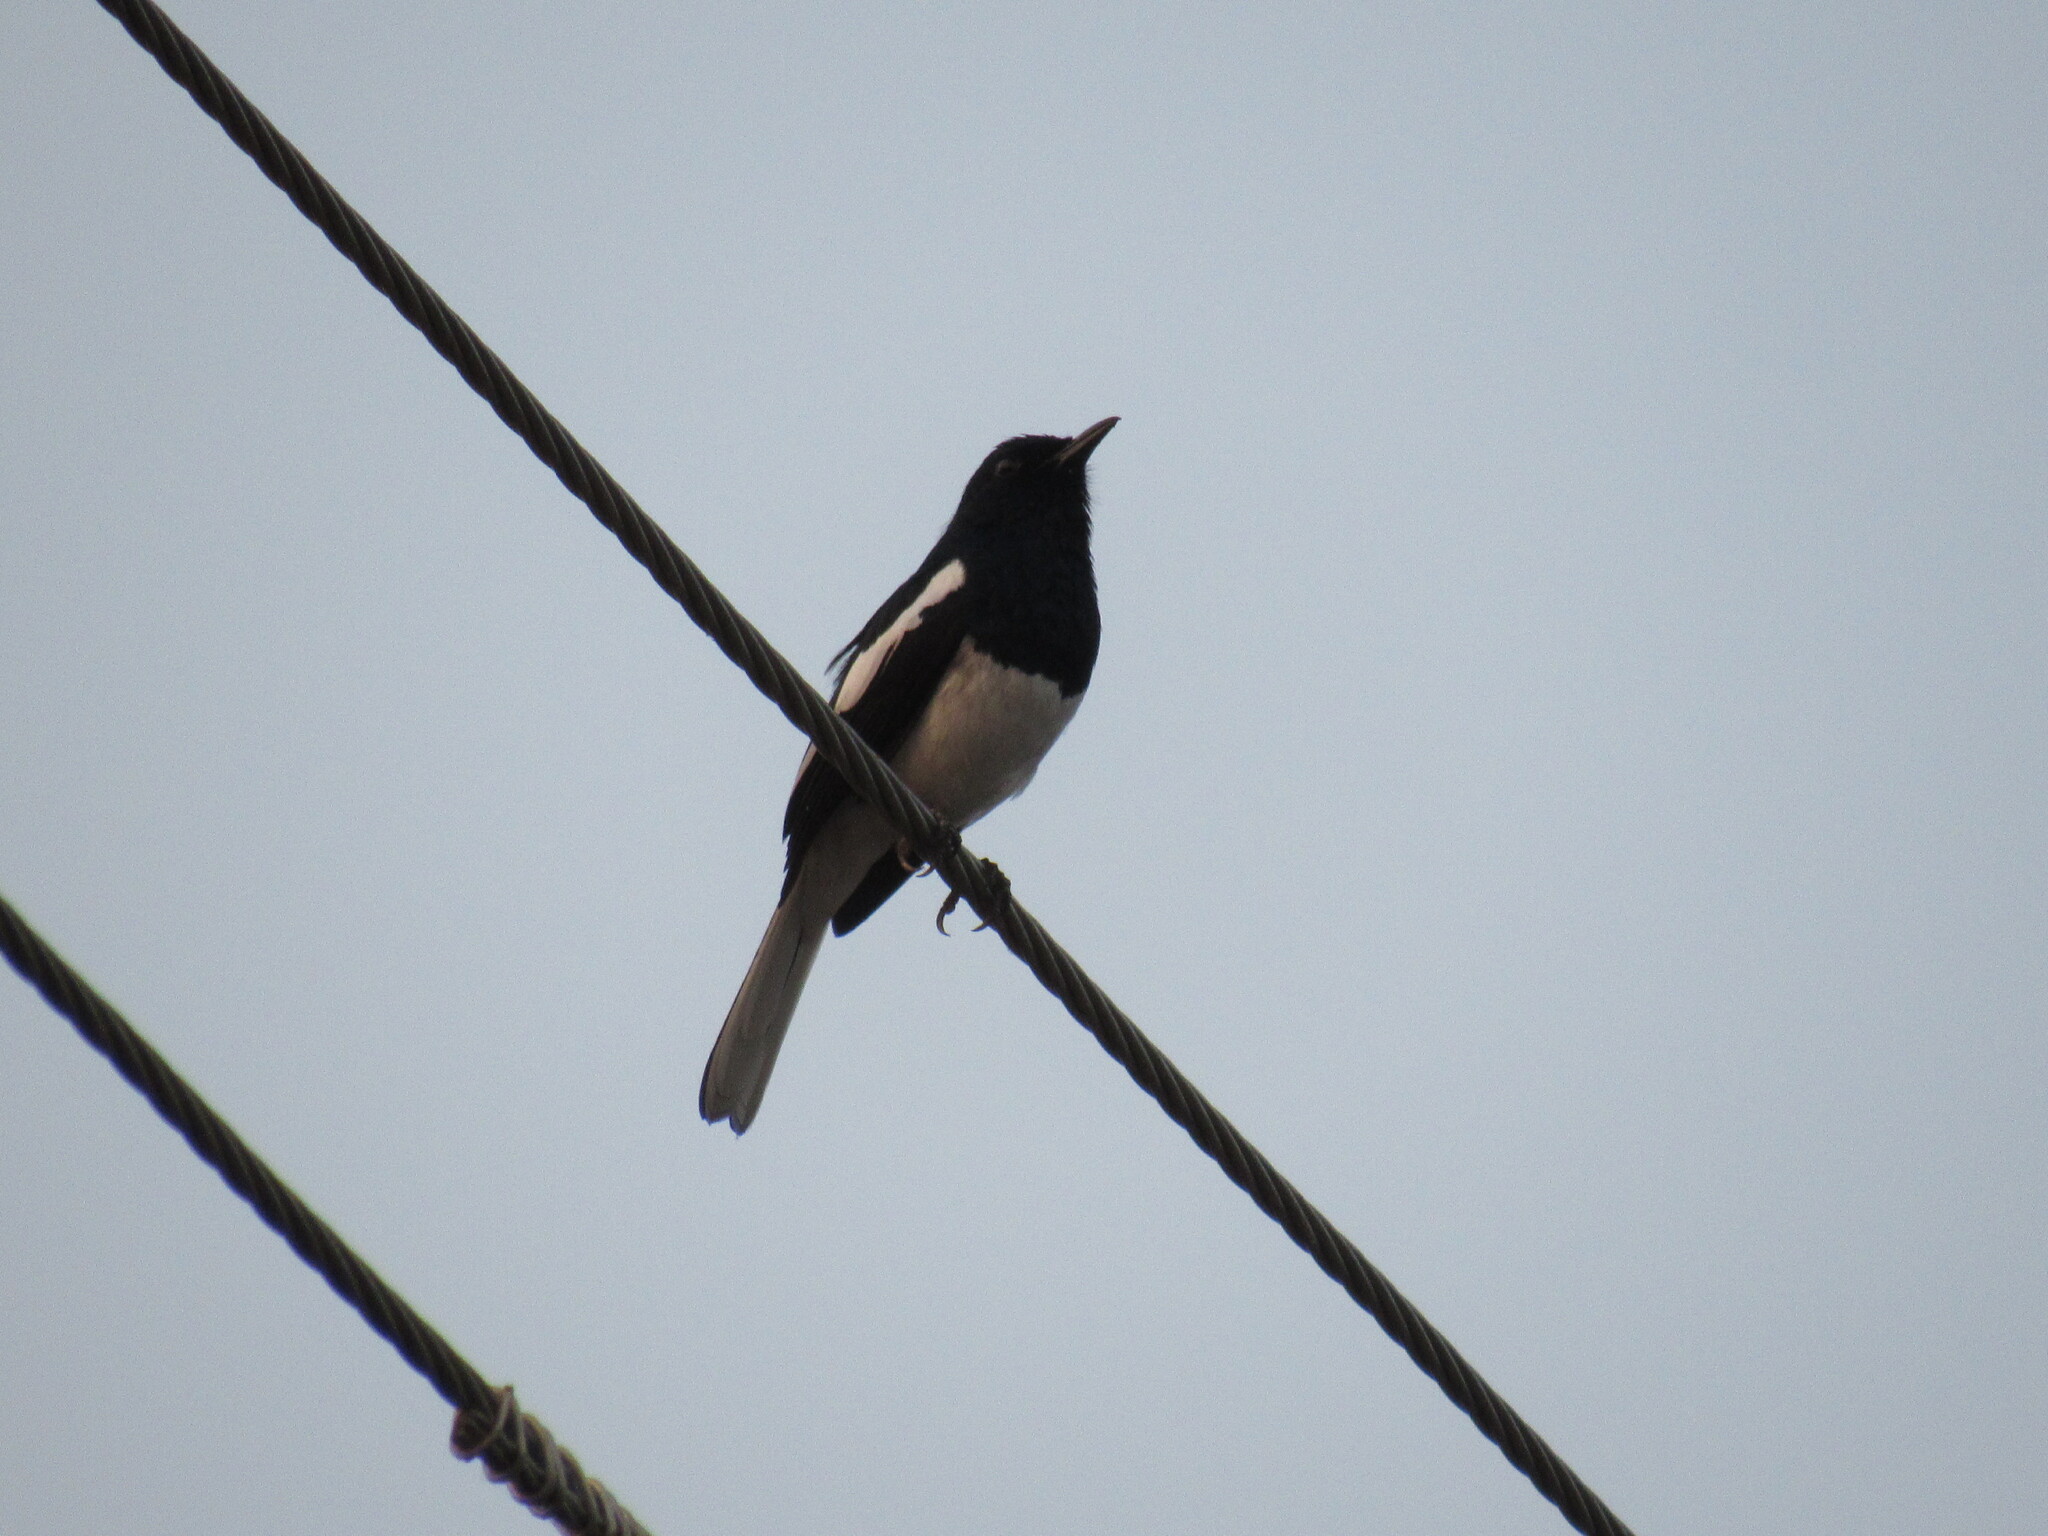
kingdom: Animalia
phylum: Chordata
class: Aves
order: Passeriformes
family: Muscicapidae
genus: Copsychus
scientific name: Copsychus saularis
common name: Oriental magpie-robin
